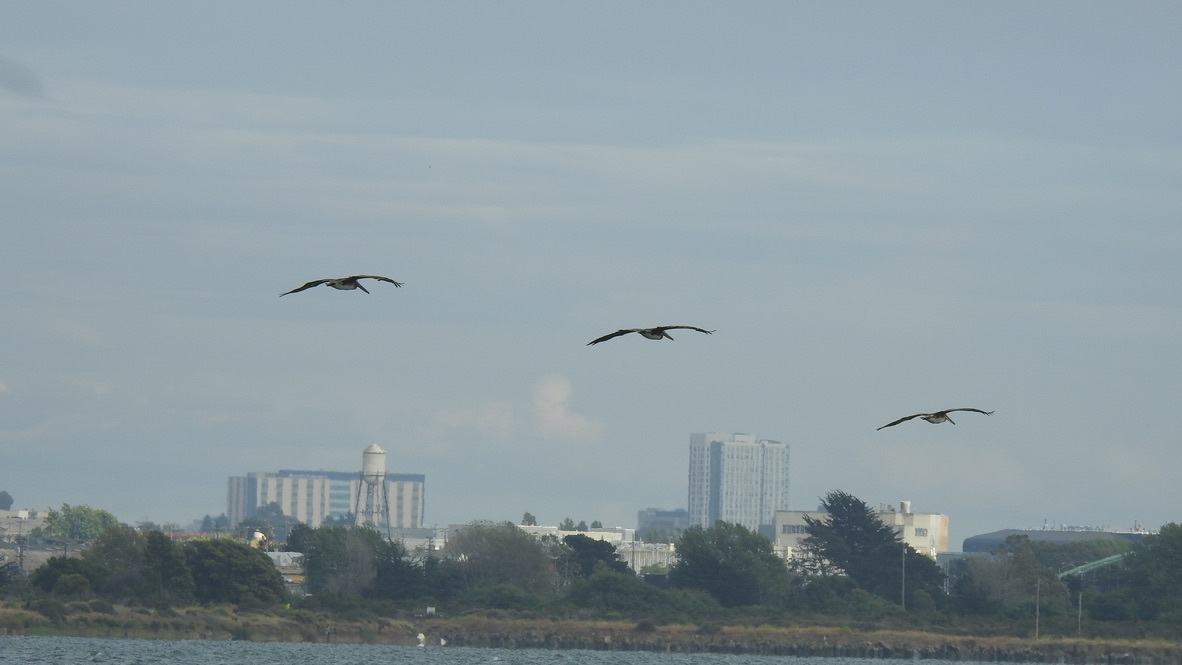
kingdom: Animalia
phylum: Chordata
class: Aves
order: Pelecaniformes
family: Pelecanidae
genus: Pelecanus
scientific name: Pelecanus occidentalis
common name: Brown pelican
